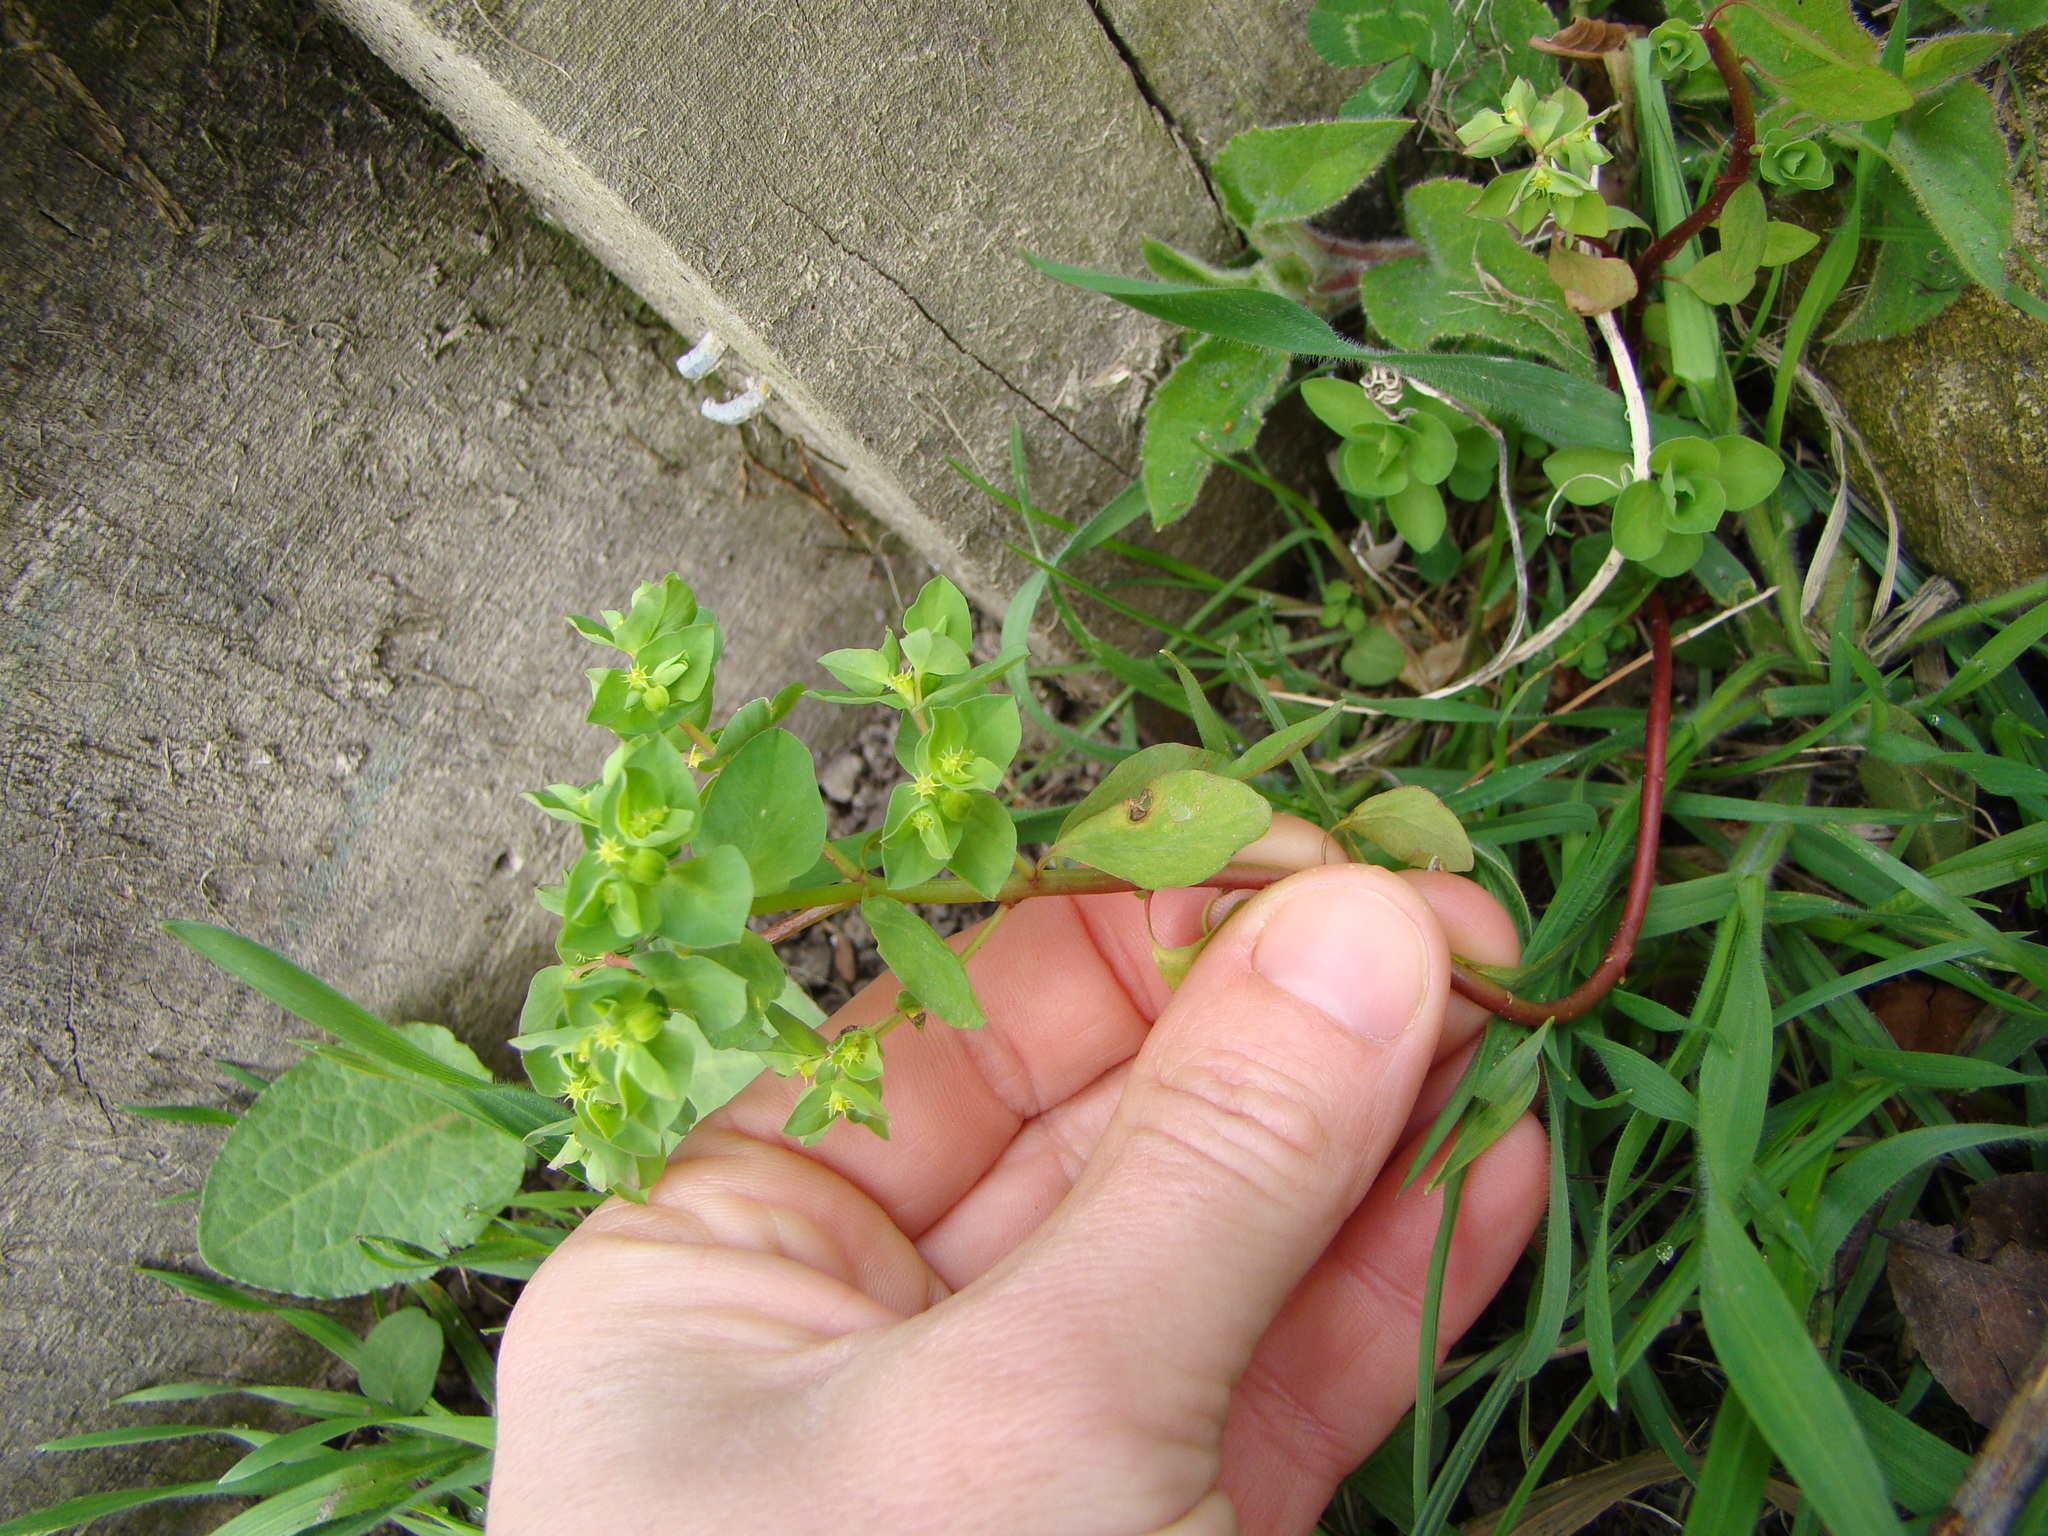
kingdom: Plantae
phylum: Tracheophyta
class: Magnoliopsida
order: Malpighiales
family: Euphorbiaceae
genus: Euphorbia
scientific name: Euphorbia peplus
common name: Petty spurge
